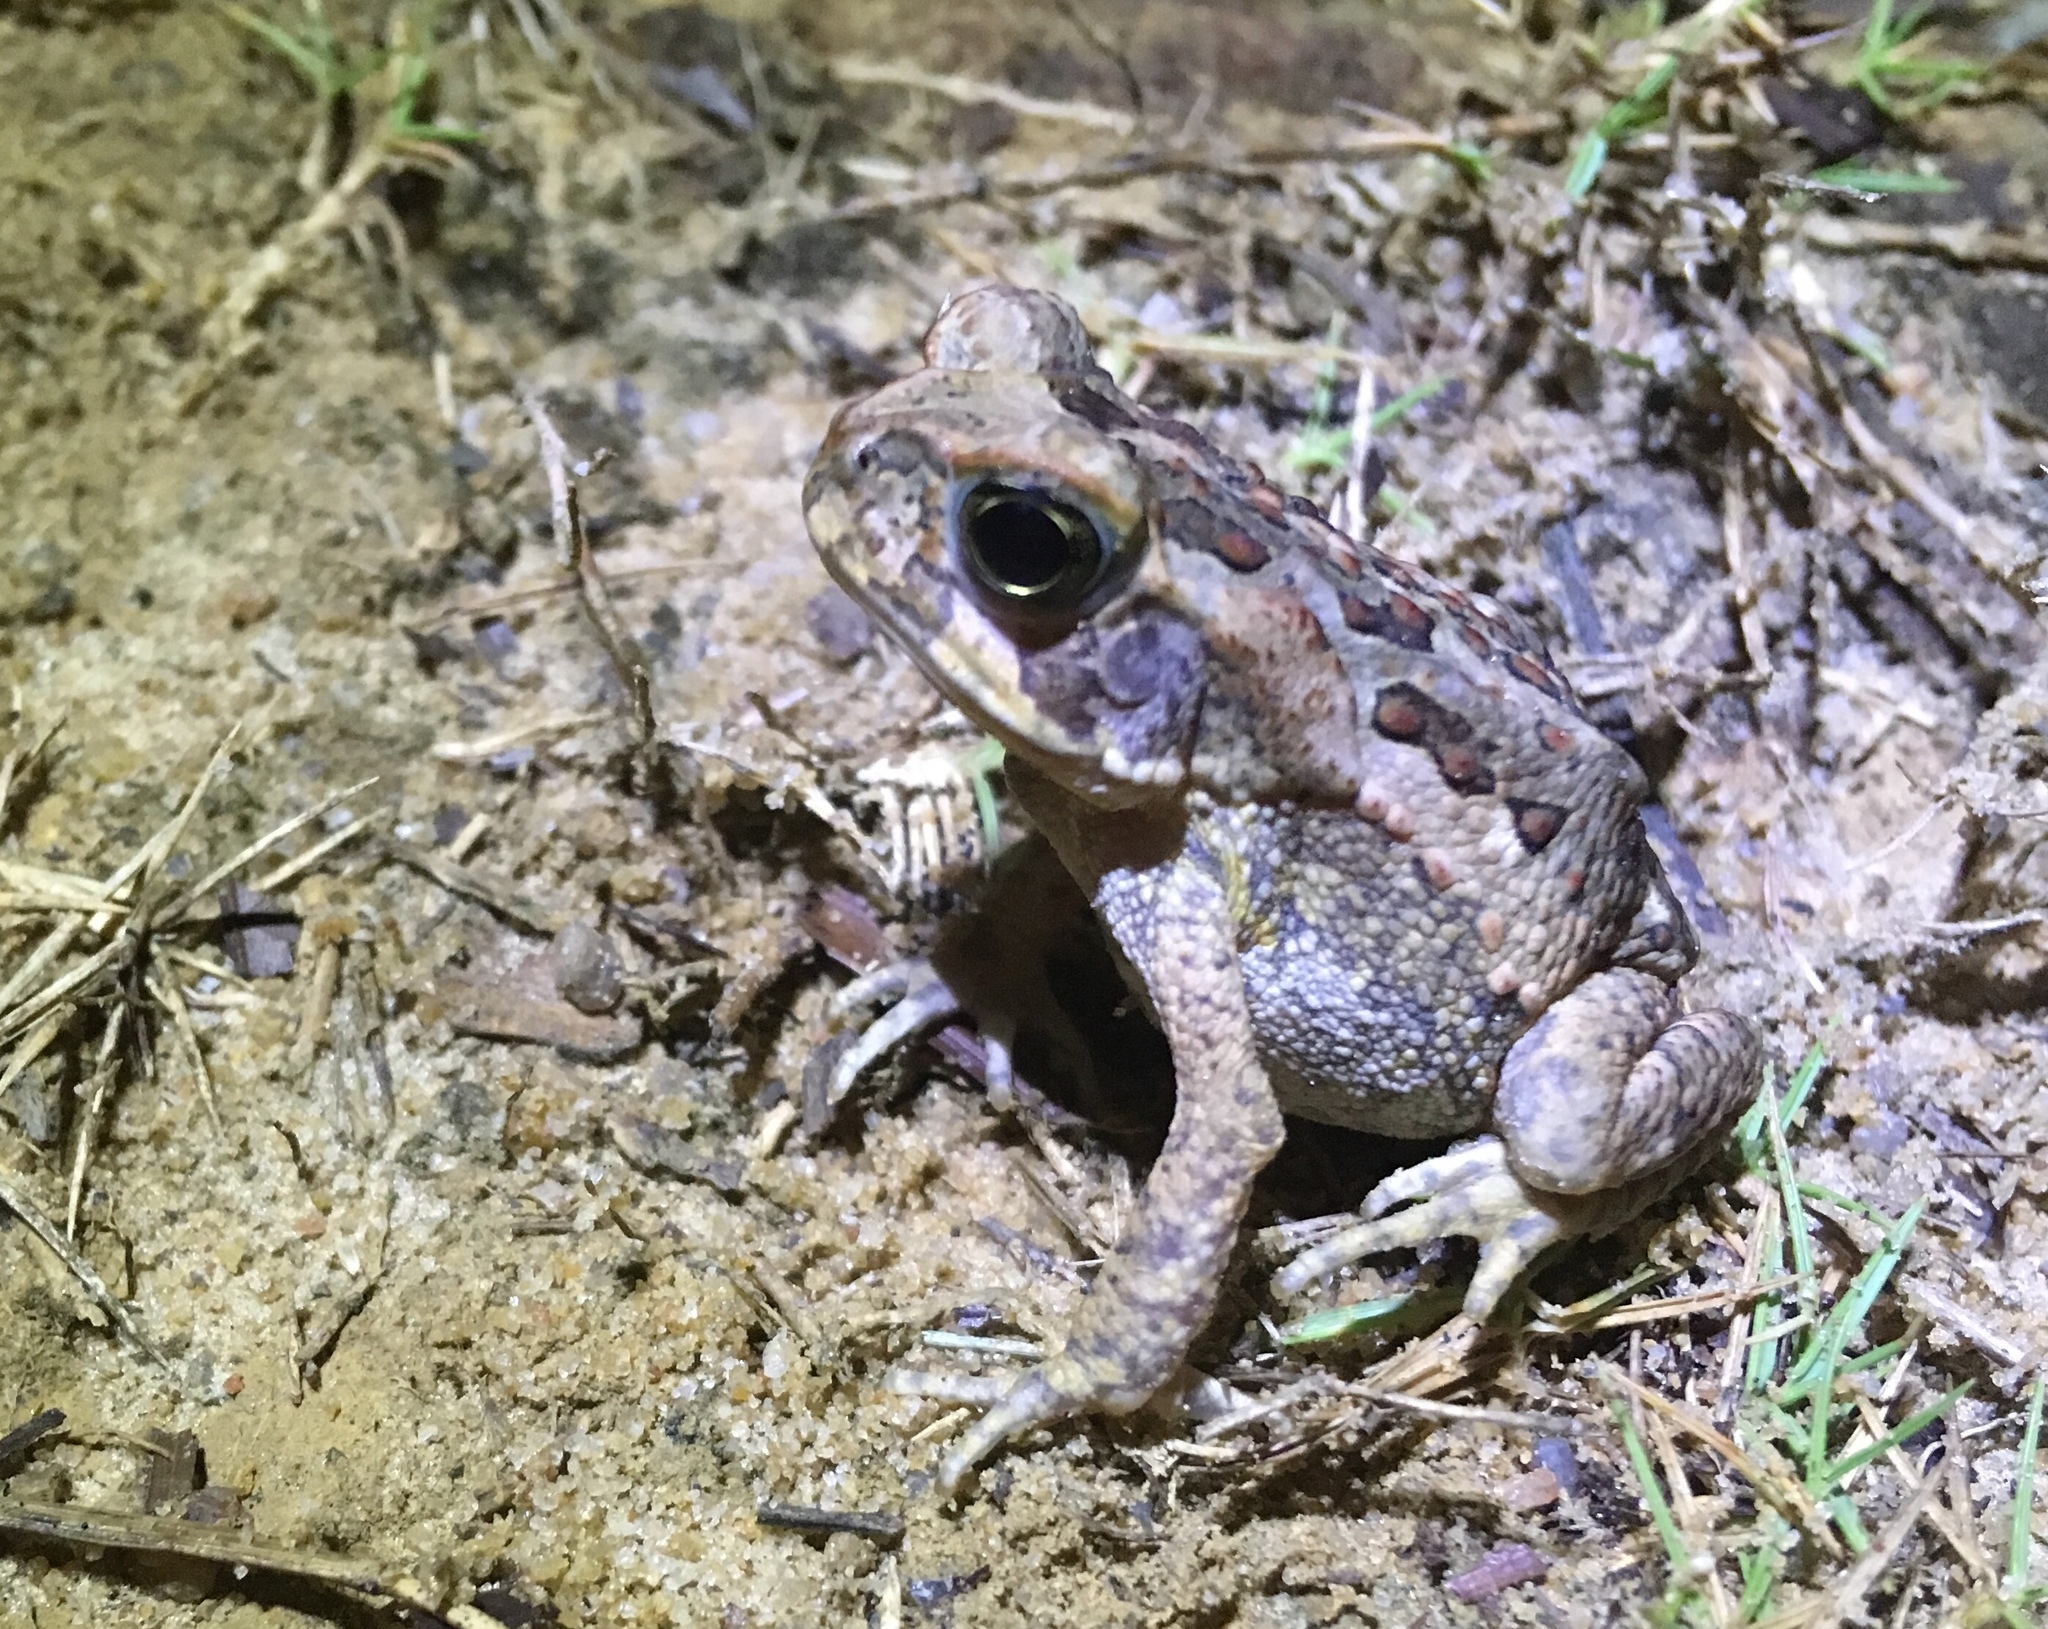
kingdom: Animalia
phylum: Chordata
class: Amphibia
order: Anura
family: Bufonidae
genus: Rhinella
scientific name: Rhinella marina
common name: Cane toad
